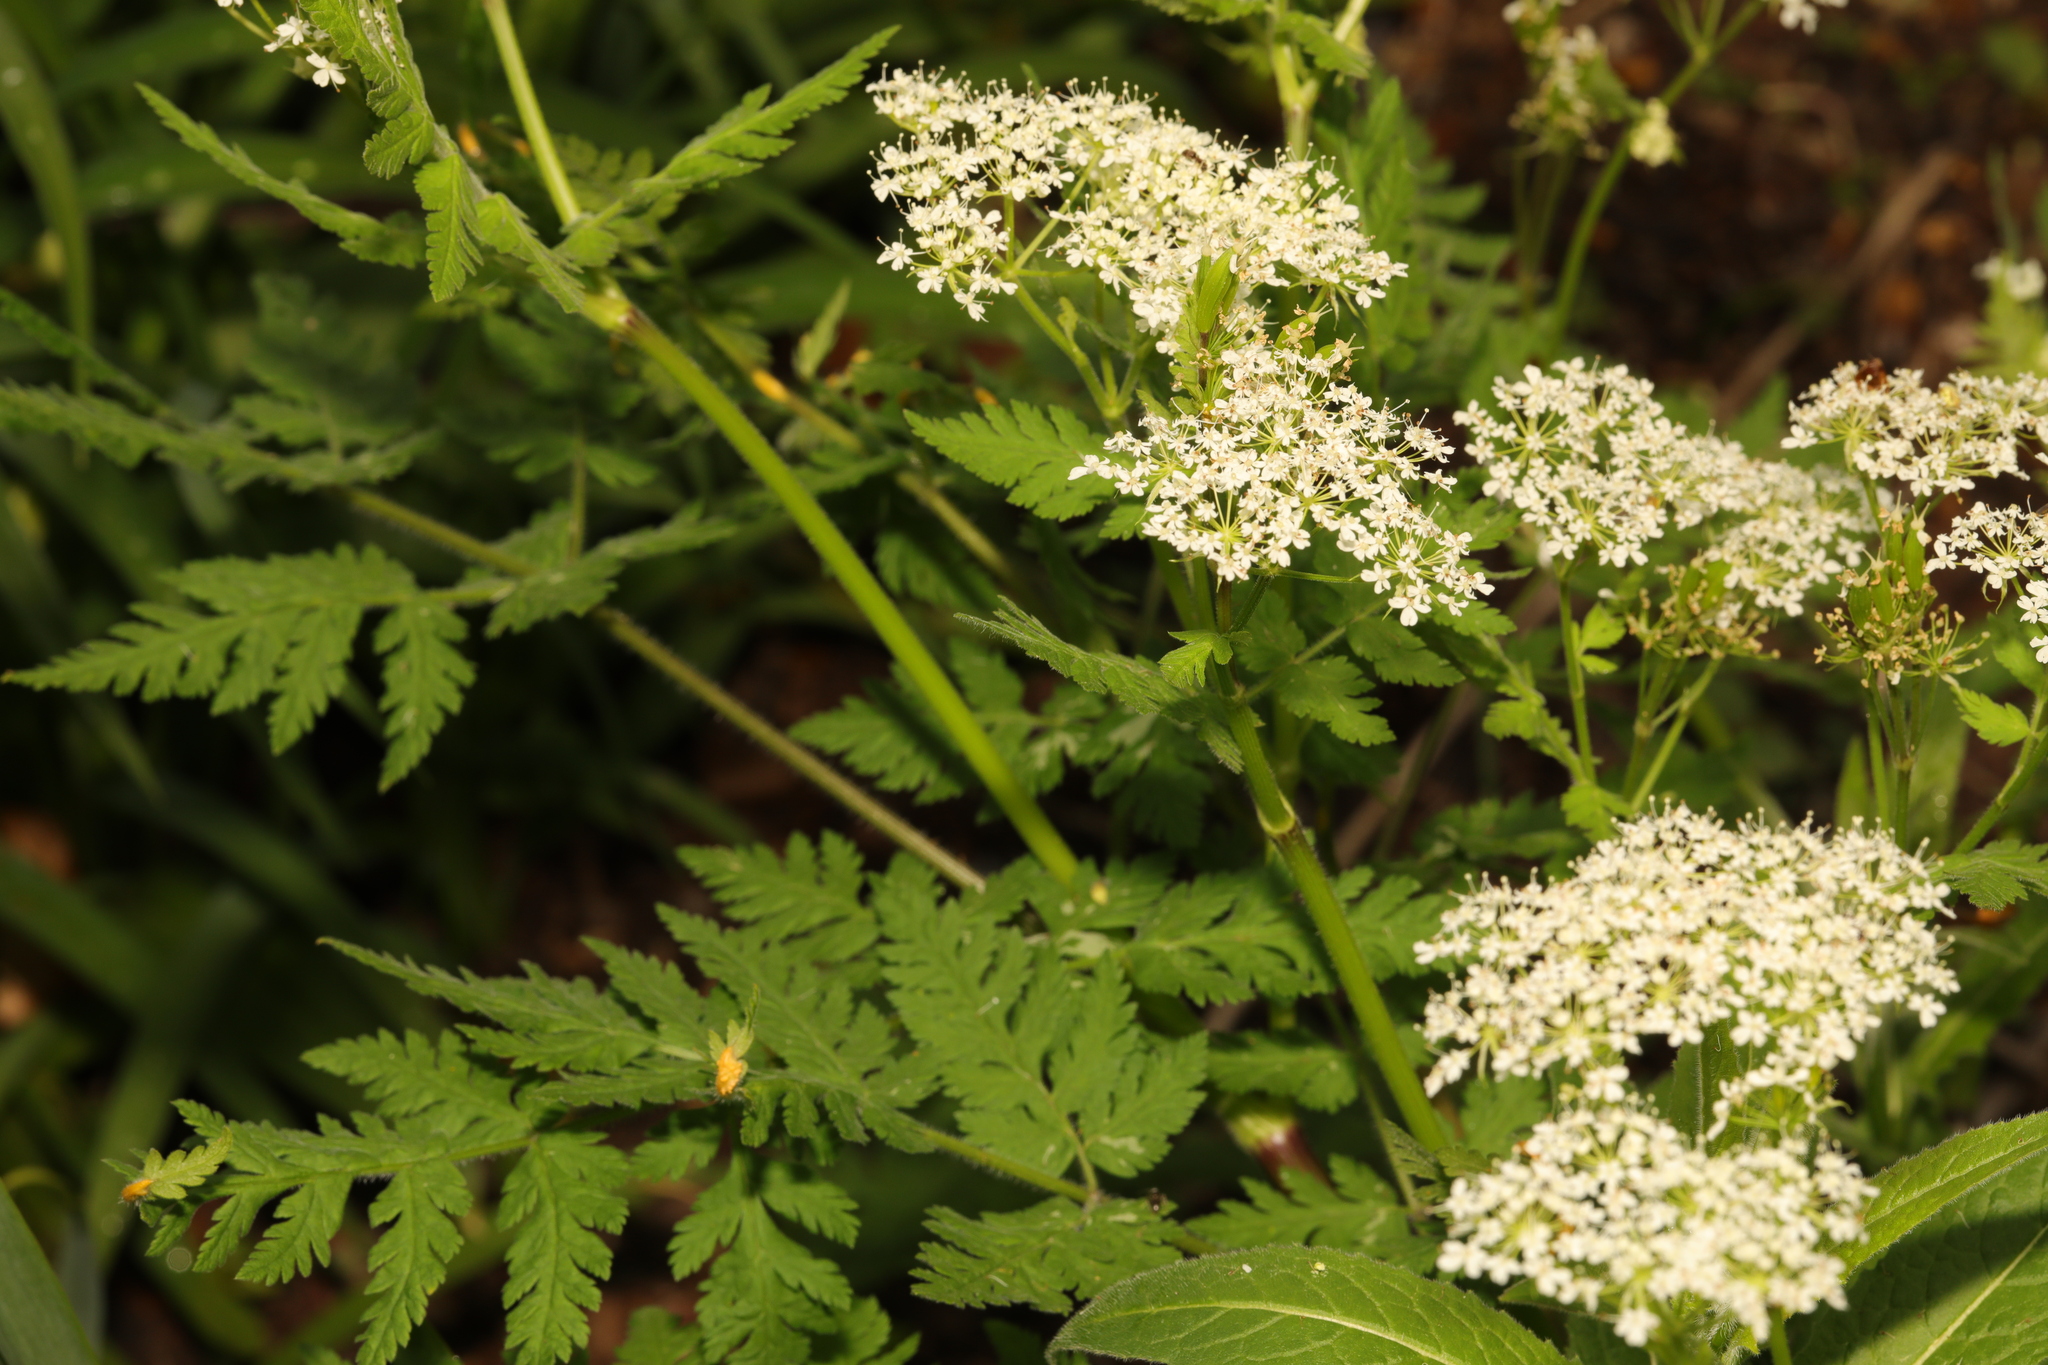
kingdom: Plantae
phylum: Tracheophyta
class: Magnoliopsida
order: Apiales
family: Apiaceae
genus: Myrrhis
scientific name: Myrrhis odorata
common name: Sweet cicely
